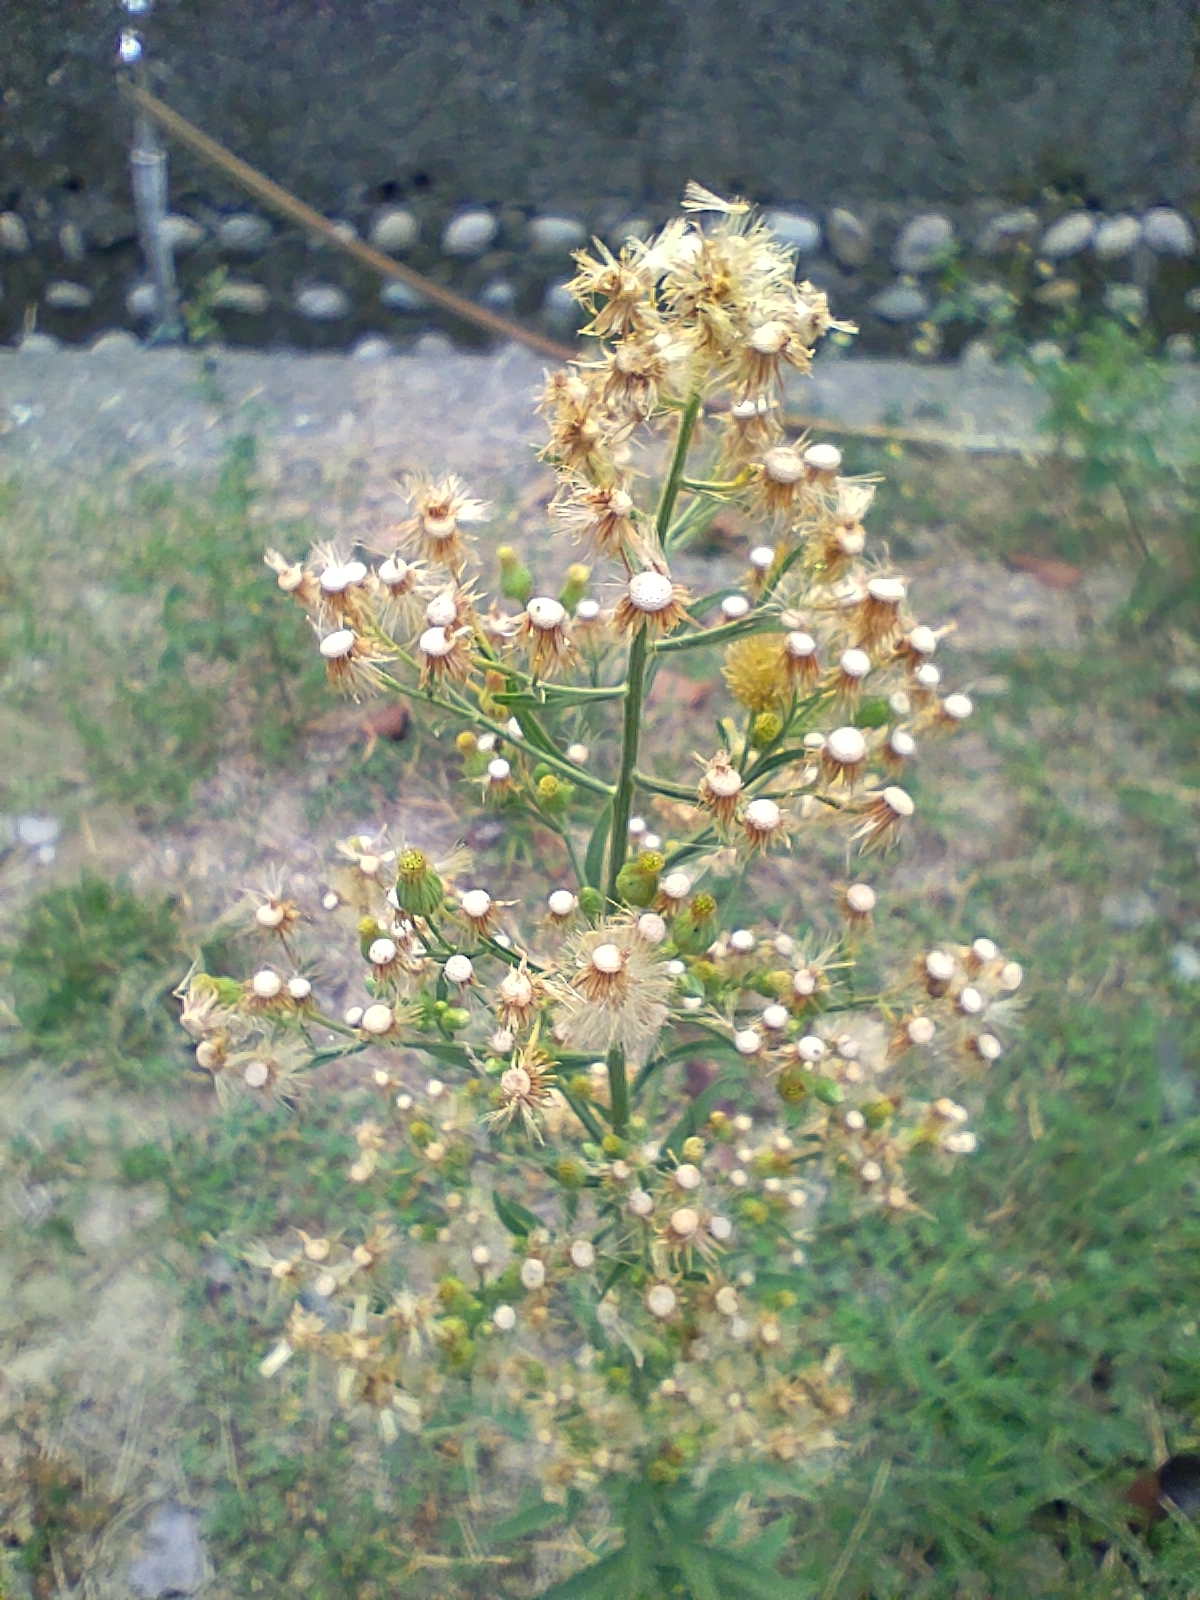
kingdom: Plantae
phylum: Tracheophyta
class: Magnoliopsida
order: Asterales
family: Asteraceae
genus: Erigeron
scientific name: Erigeron sumatrensis
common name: Daisy
